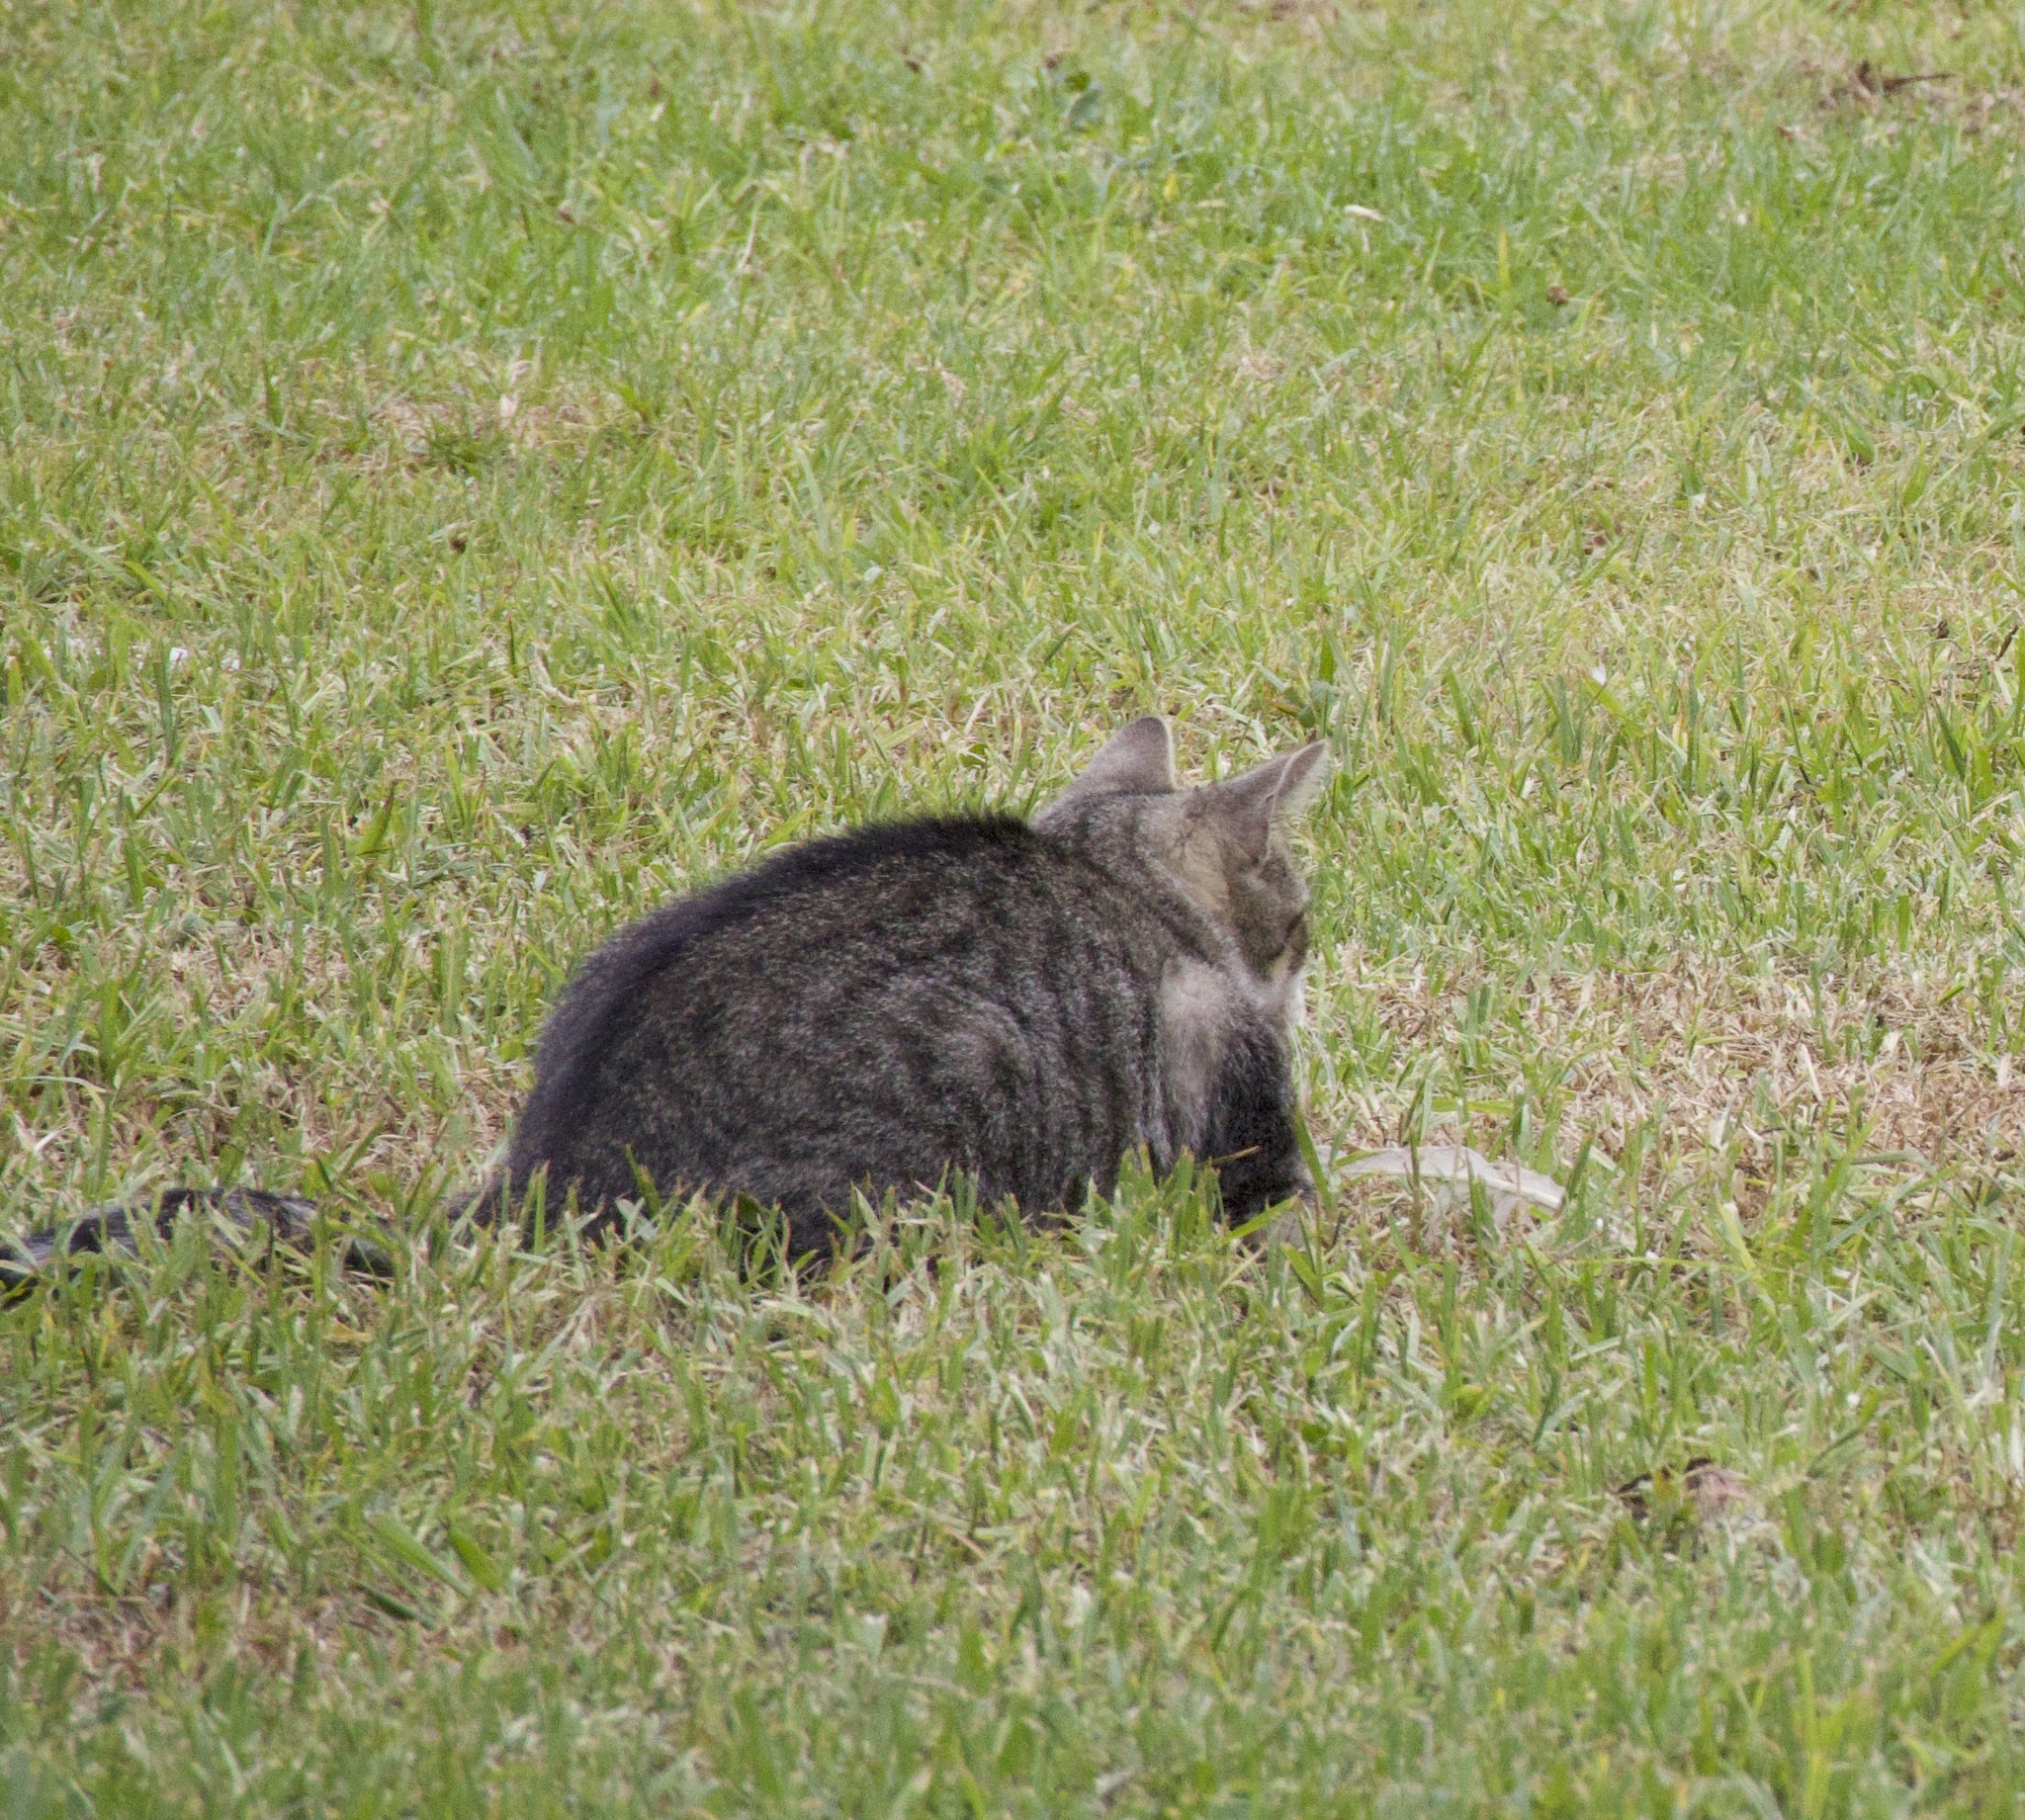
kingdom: Animalia
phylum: Chordata
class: Mammalia
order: Carnivora
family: Felidae
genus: Felis
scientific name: Felis catus
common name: Domestic cat
